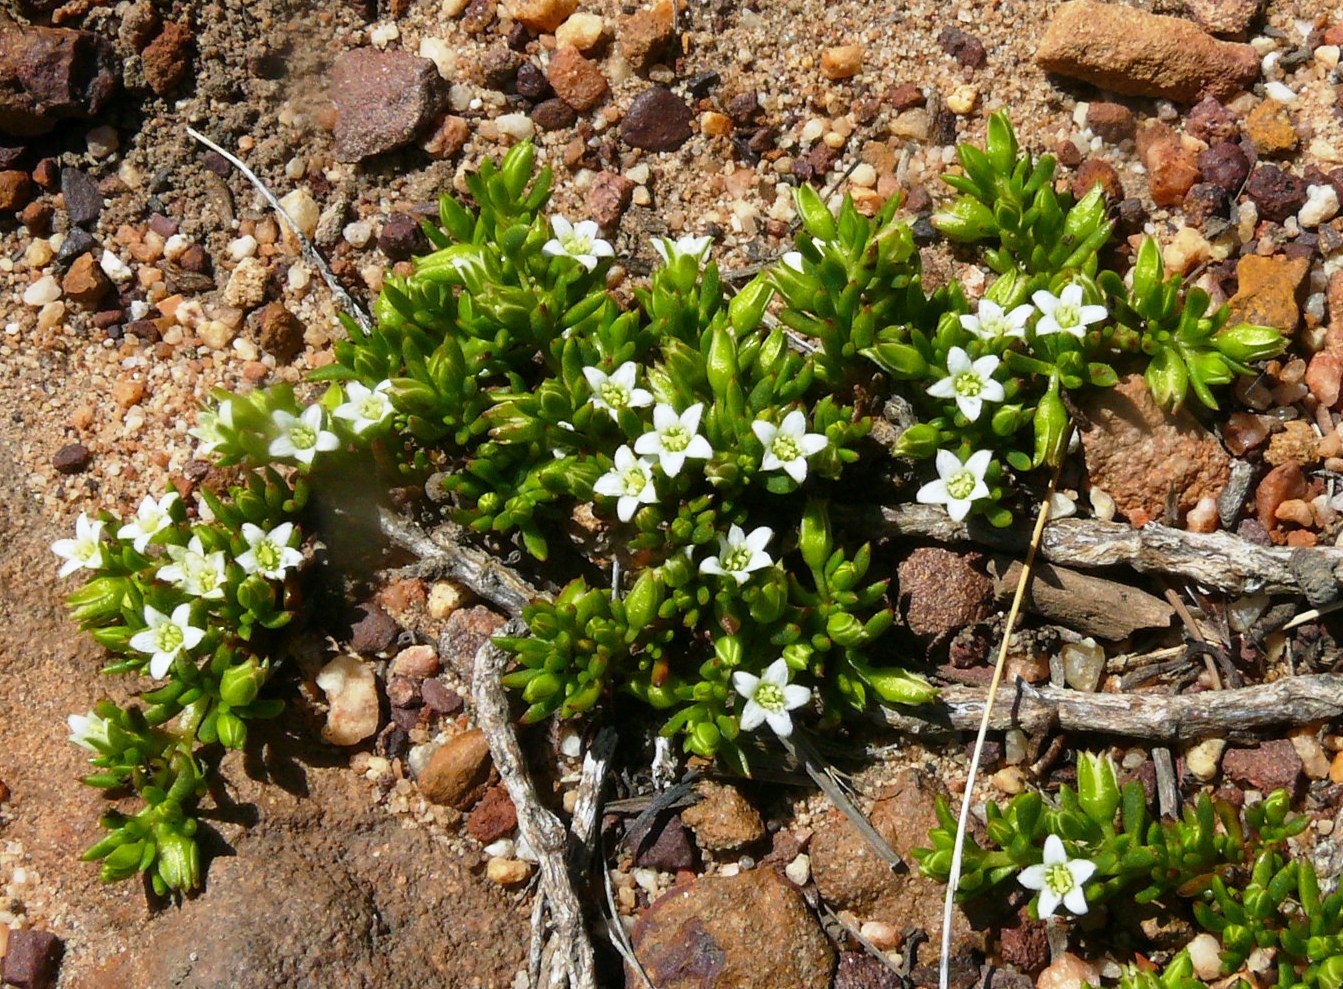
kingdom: Plantae
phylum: Tracheophyta
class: Magnoliopsida
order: Caryophyllales
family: Aizoaceae
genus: Acrosanthes
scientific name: Acrosanthes humifusa
